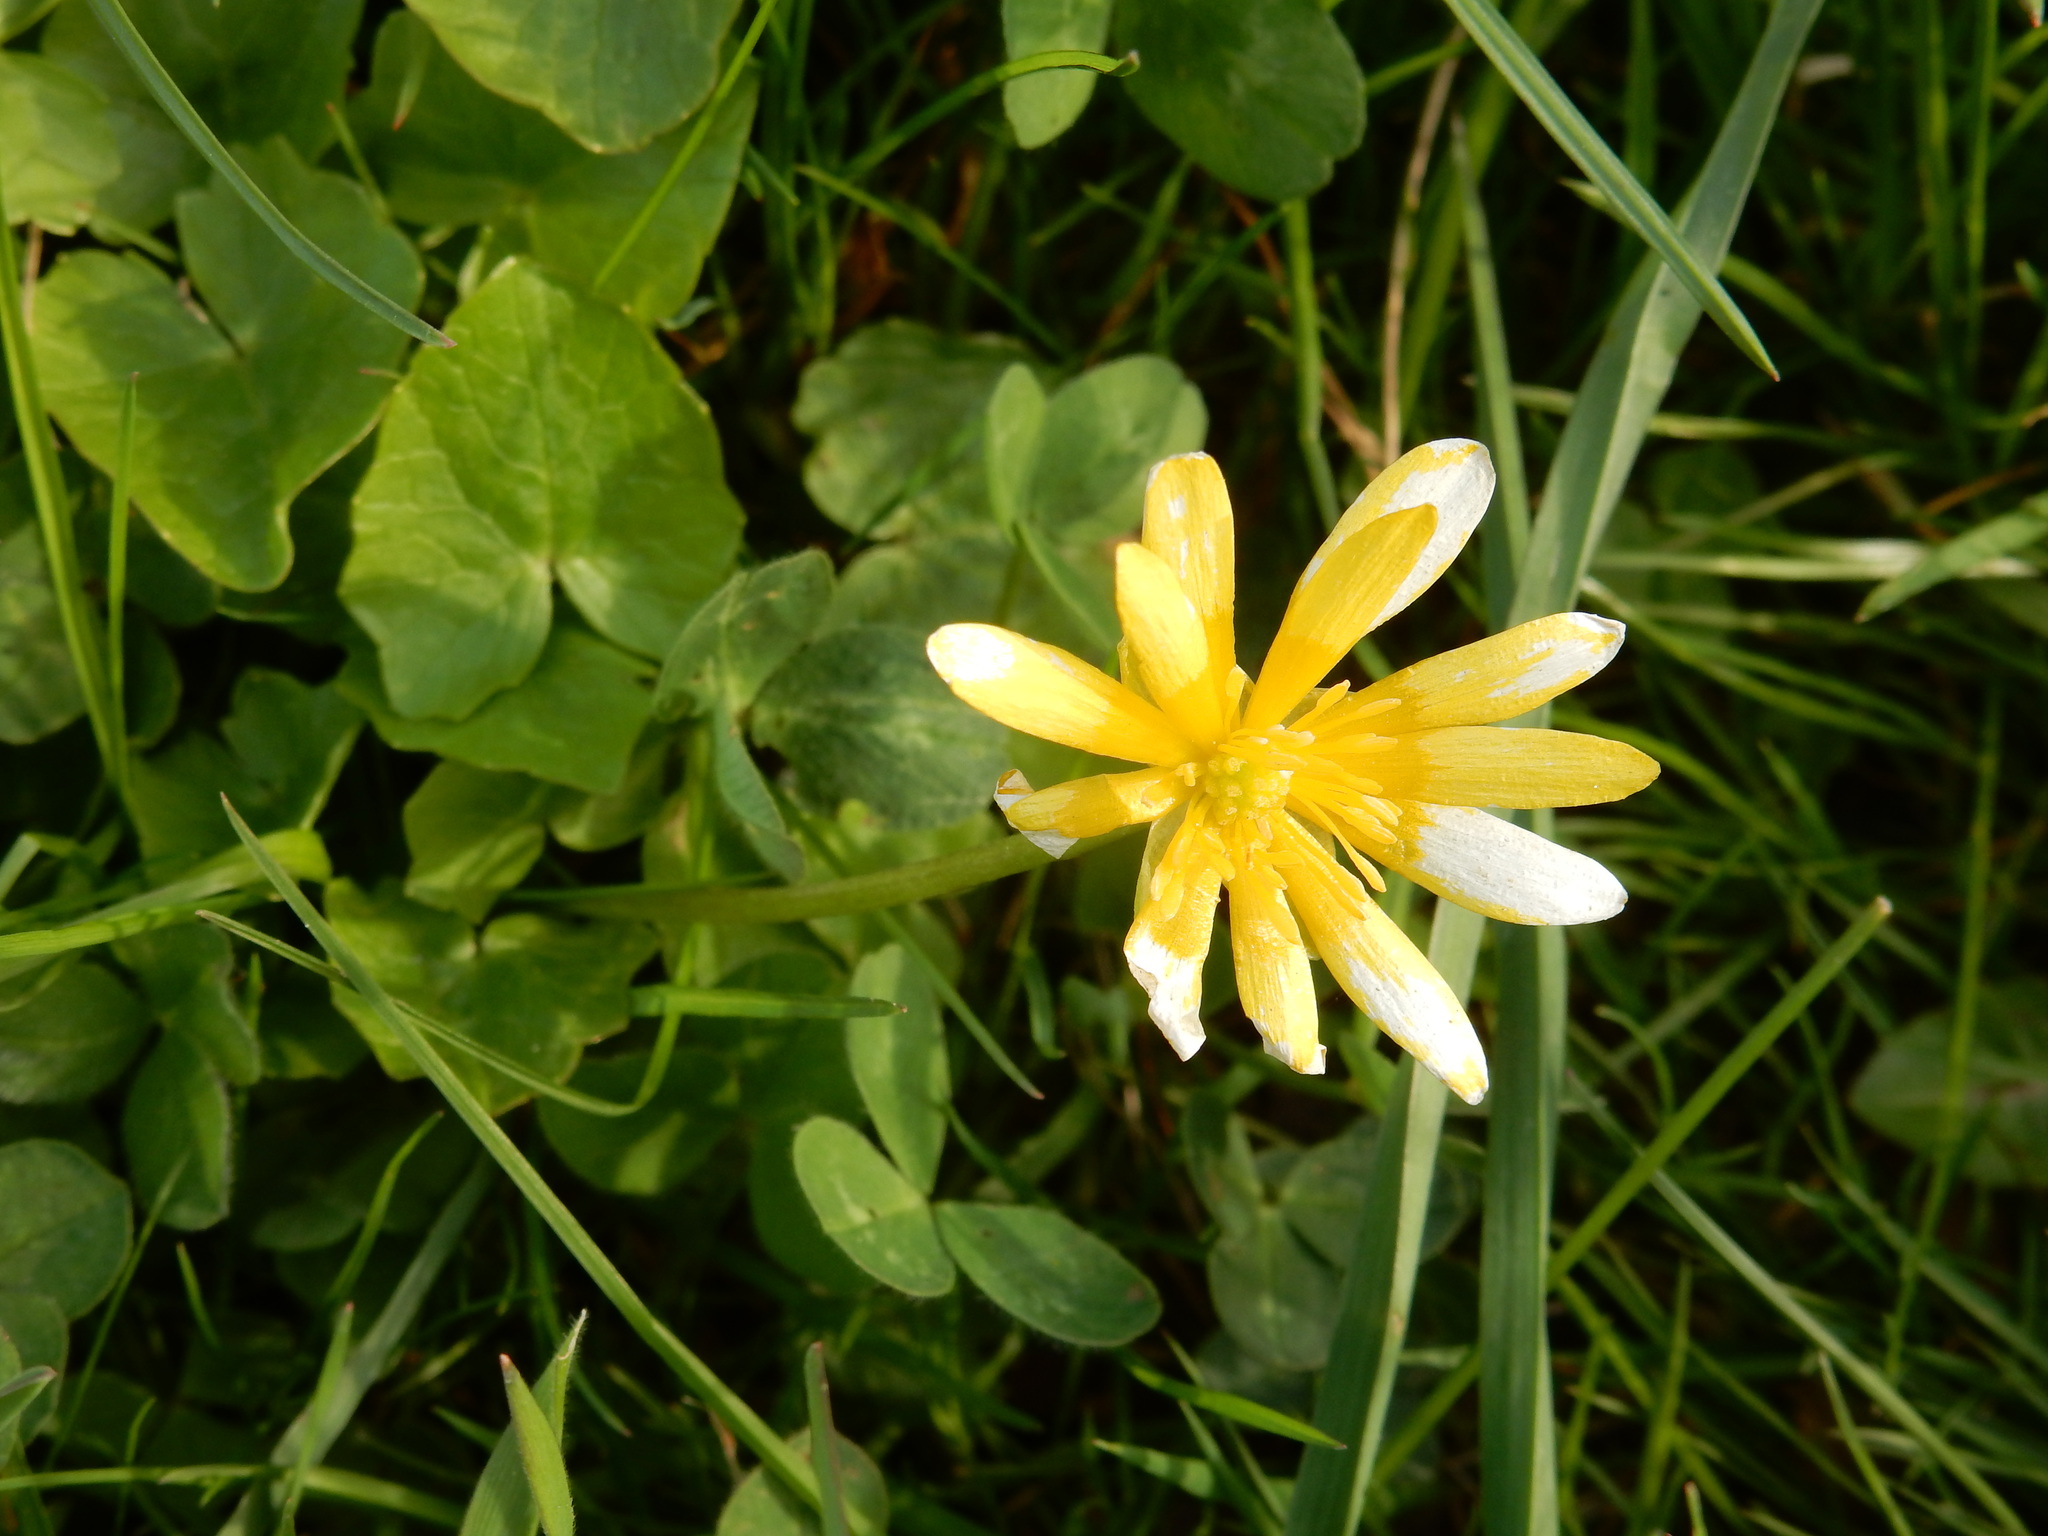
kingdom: Plantae
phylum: Tracheophyta
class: Magnoliopsida
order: Ranunculales
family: Ranunculaceae
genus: Ficaria
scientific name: Ficaria verna
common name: Lesser celandine
